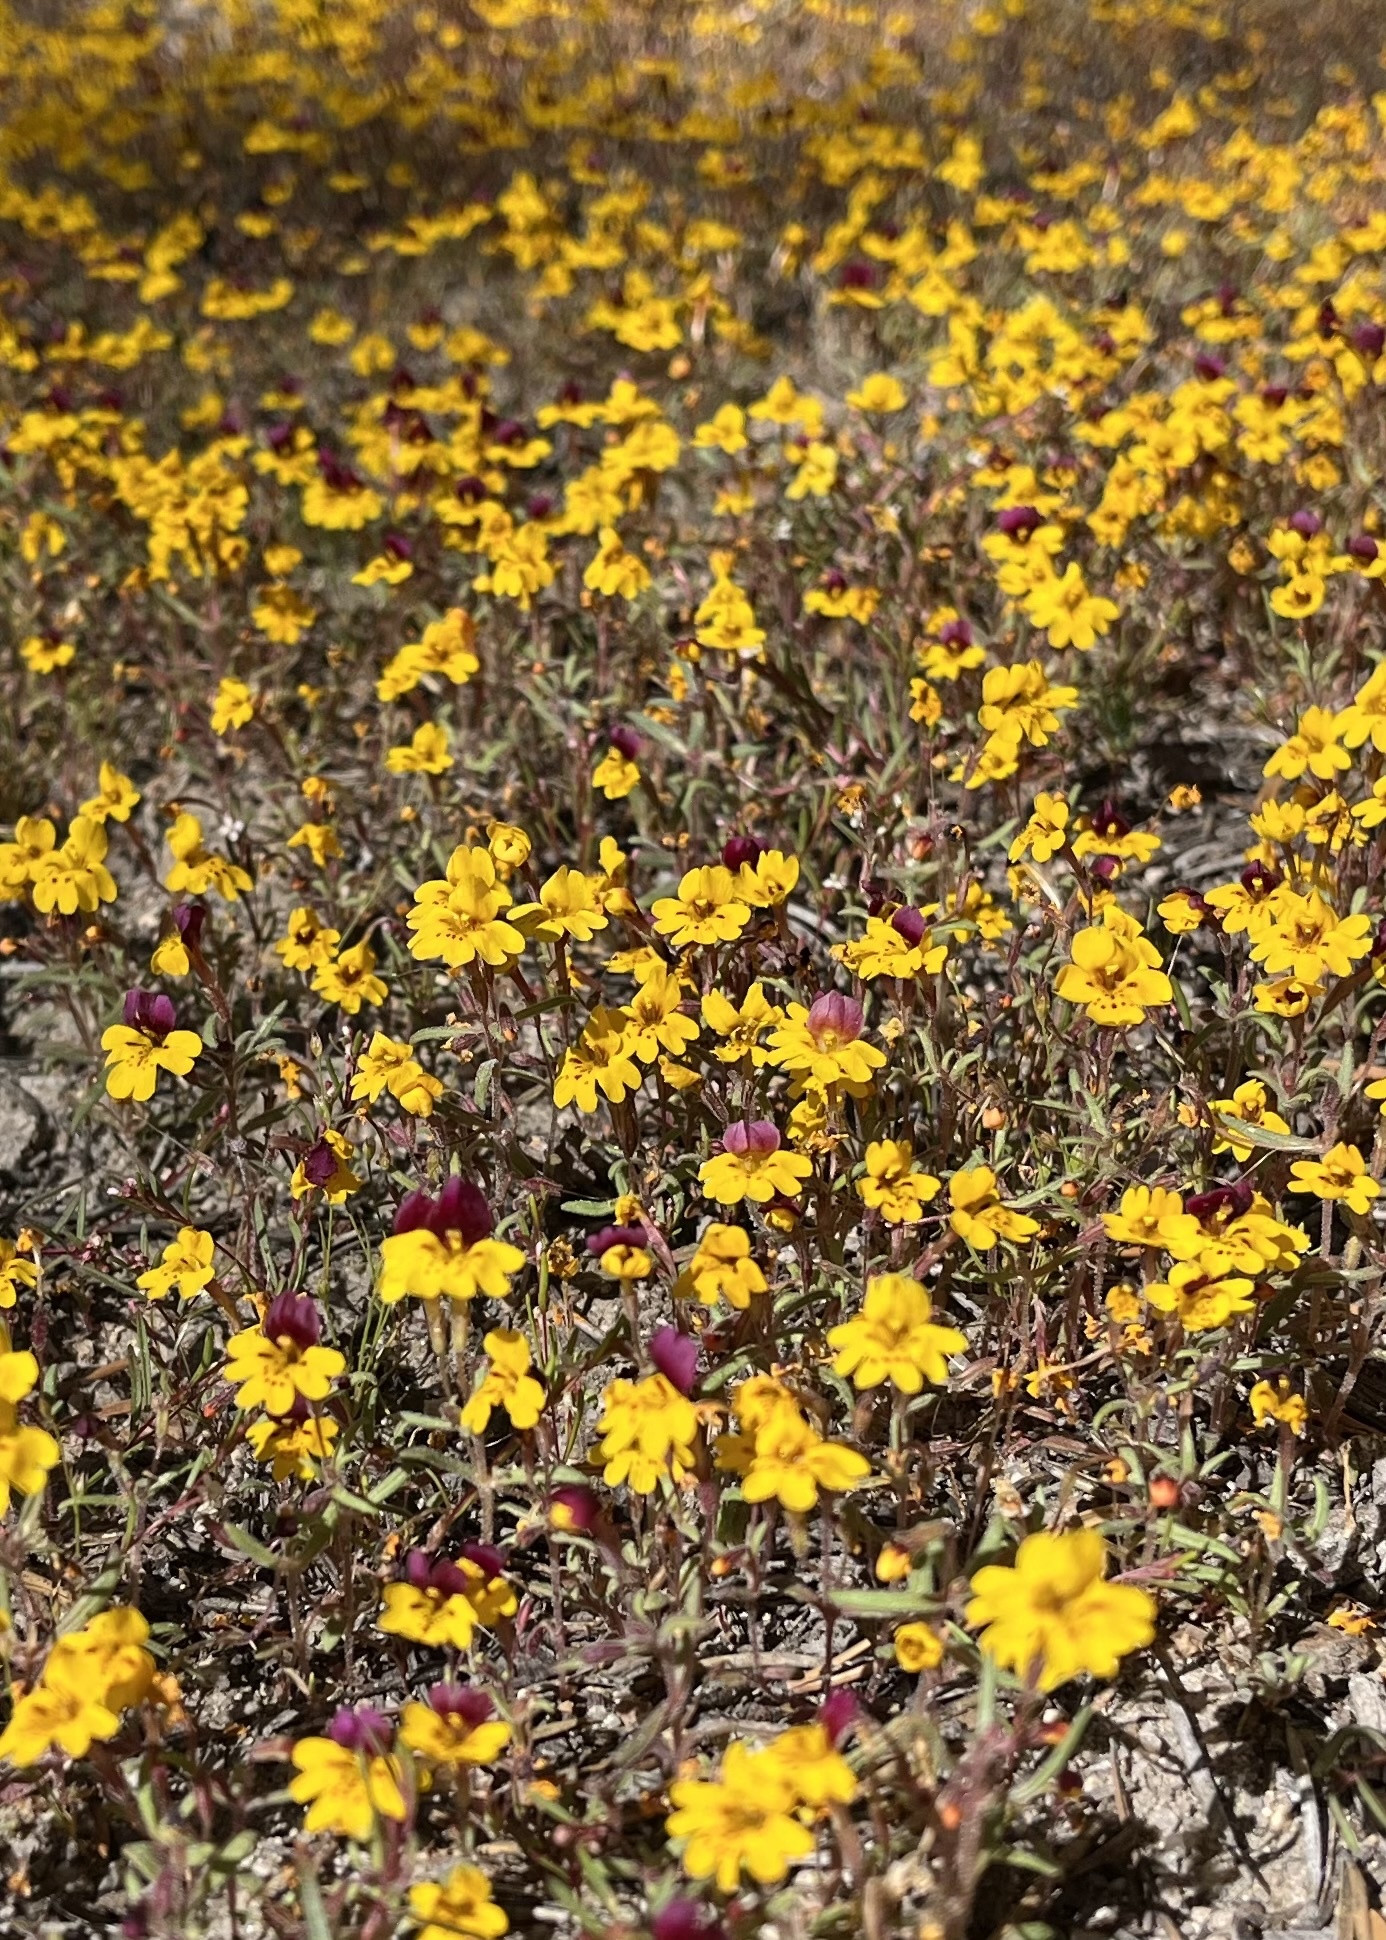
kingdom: Plantae
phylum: Tracheophyta
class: Magnoliopsida
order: Lamiales
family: Phrymaceae
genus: Erythranthe
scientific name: Erythranthe barbata
